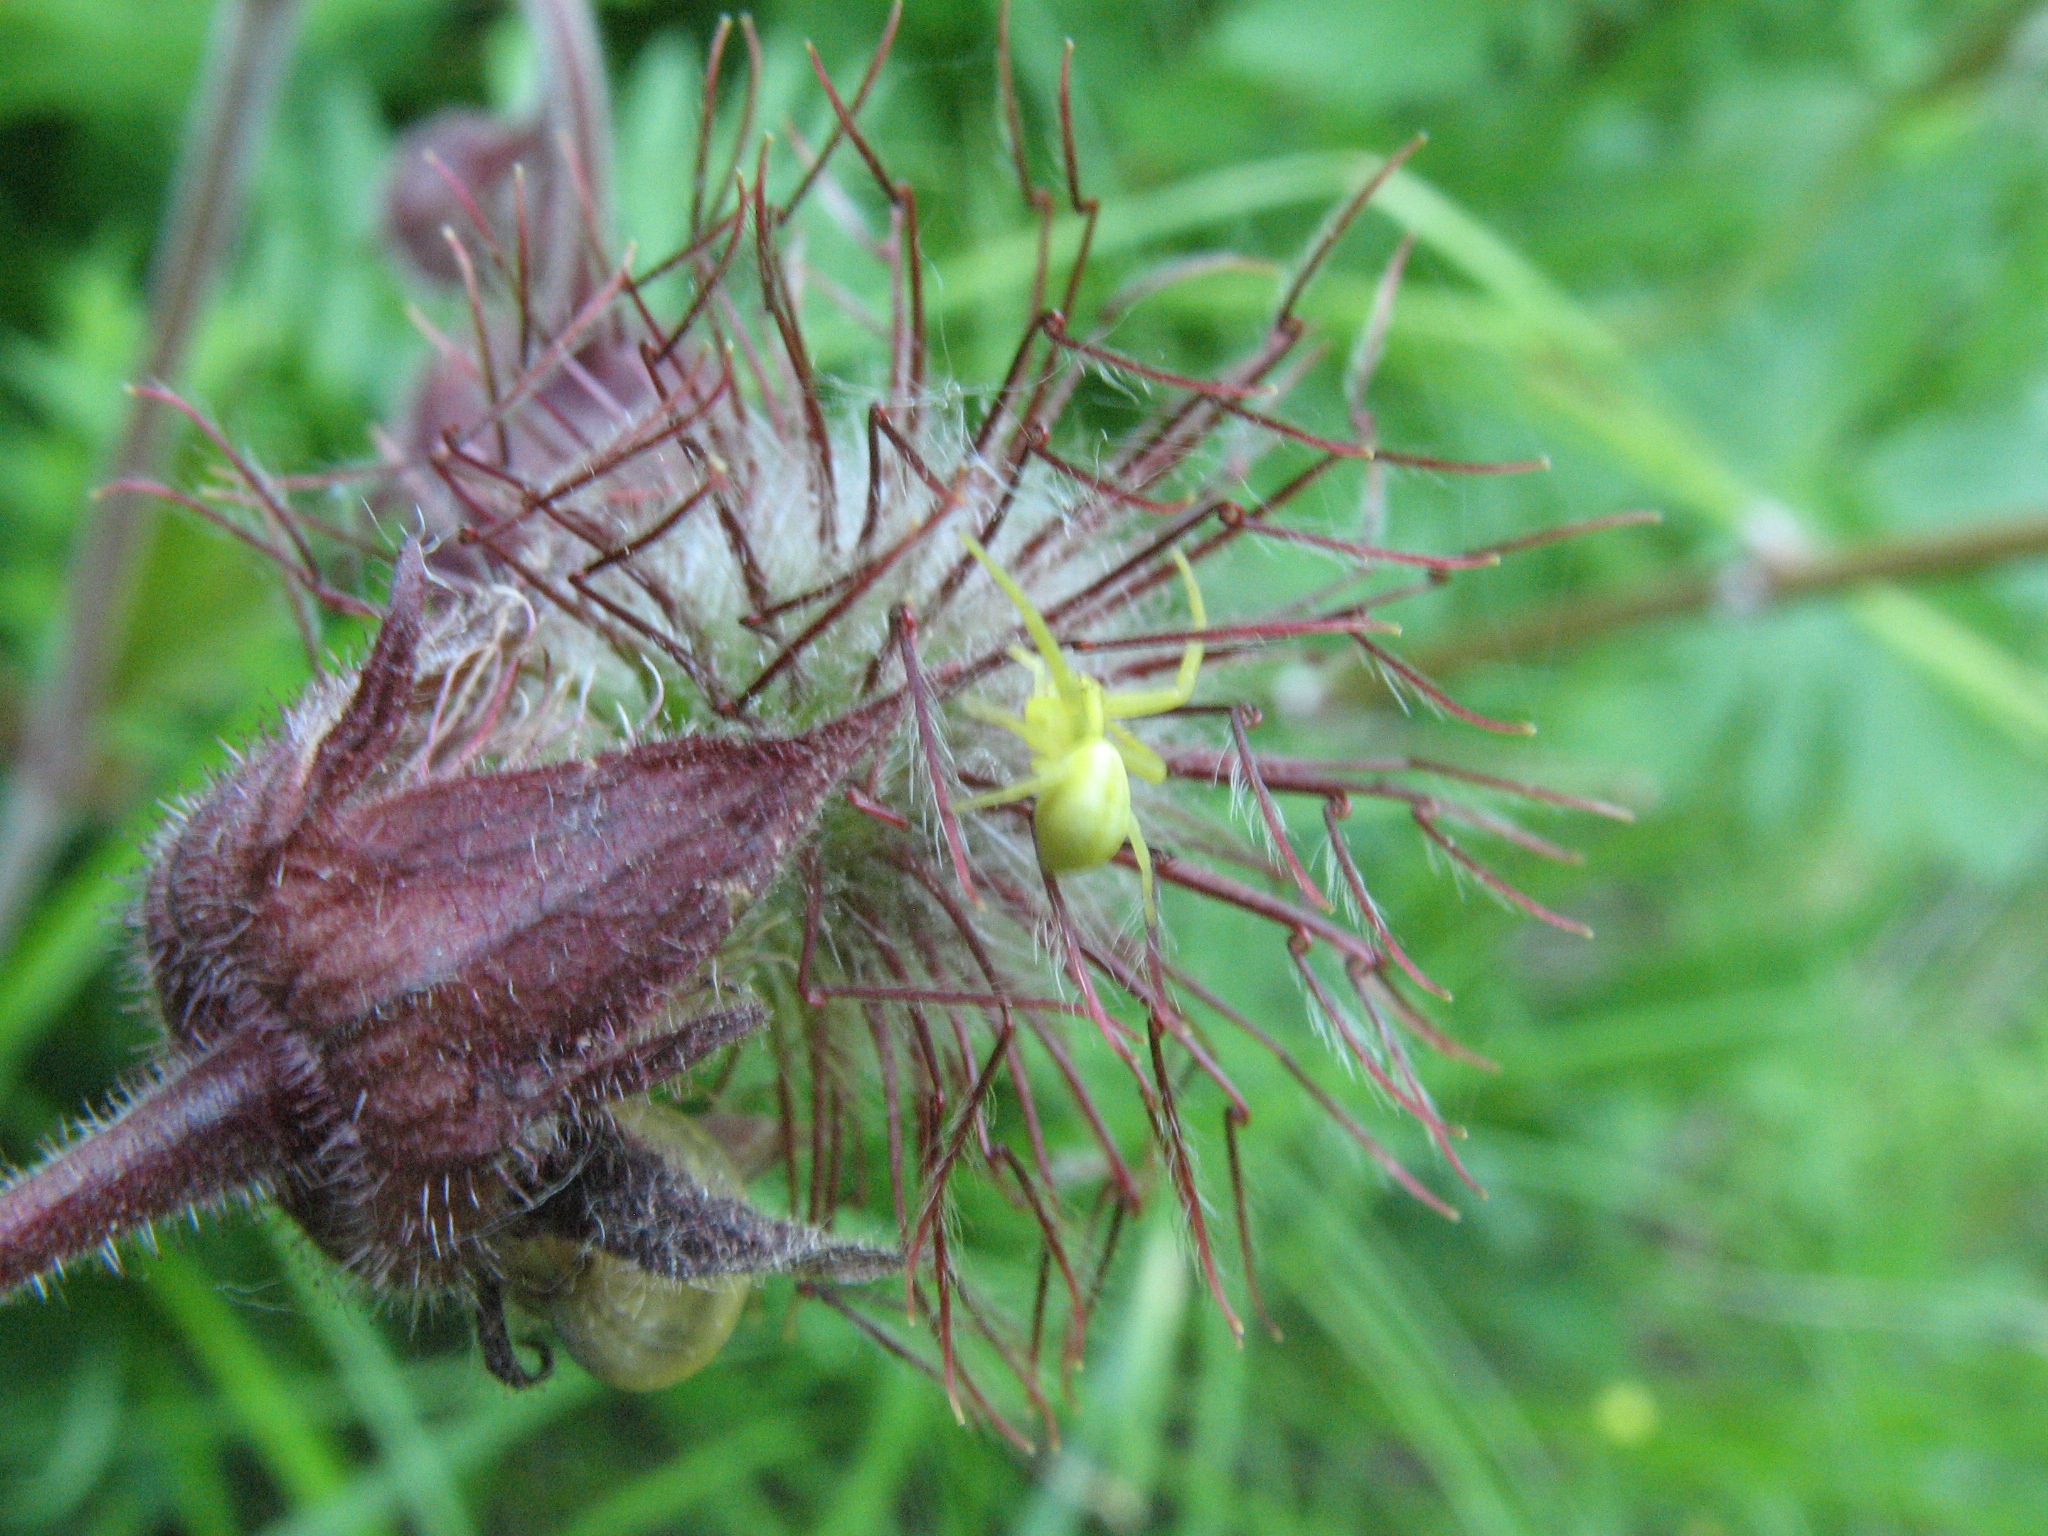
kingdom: Animalia
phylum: Arthropoda
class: Arachnida
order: Araneae
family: Thomisidae
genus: Misumena
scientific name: Misumena vatia
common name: Goldenrod crab spider
